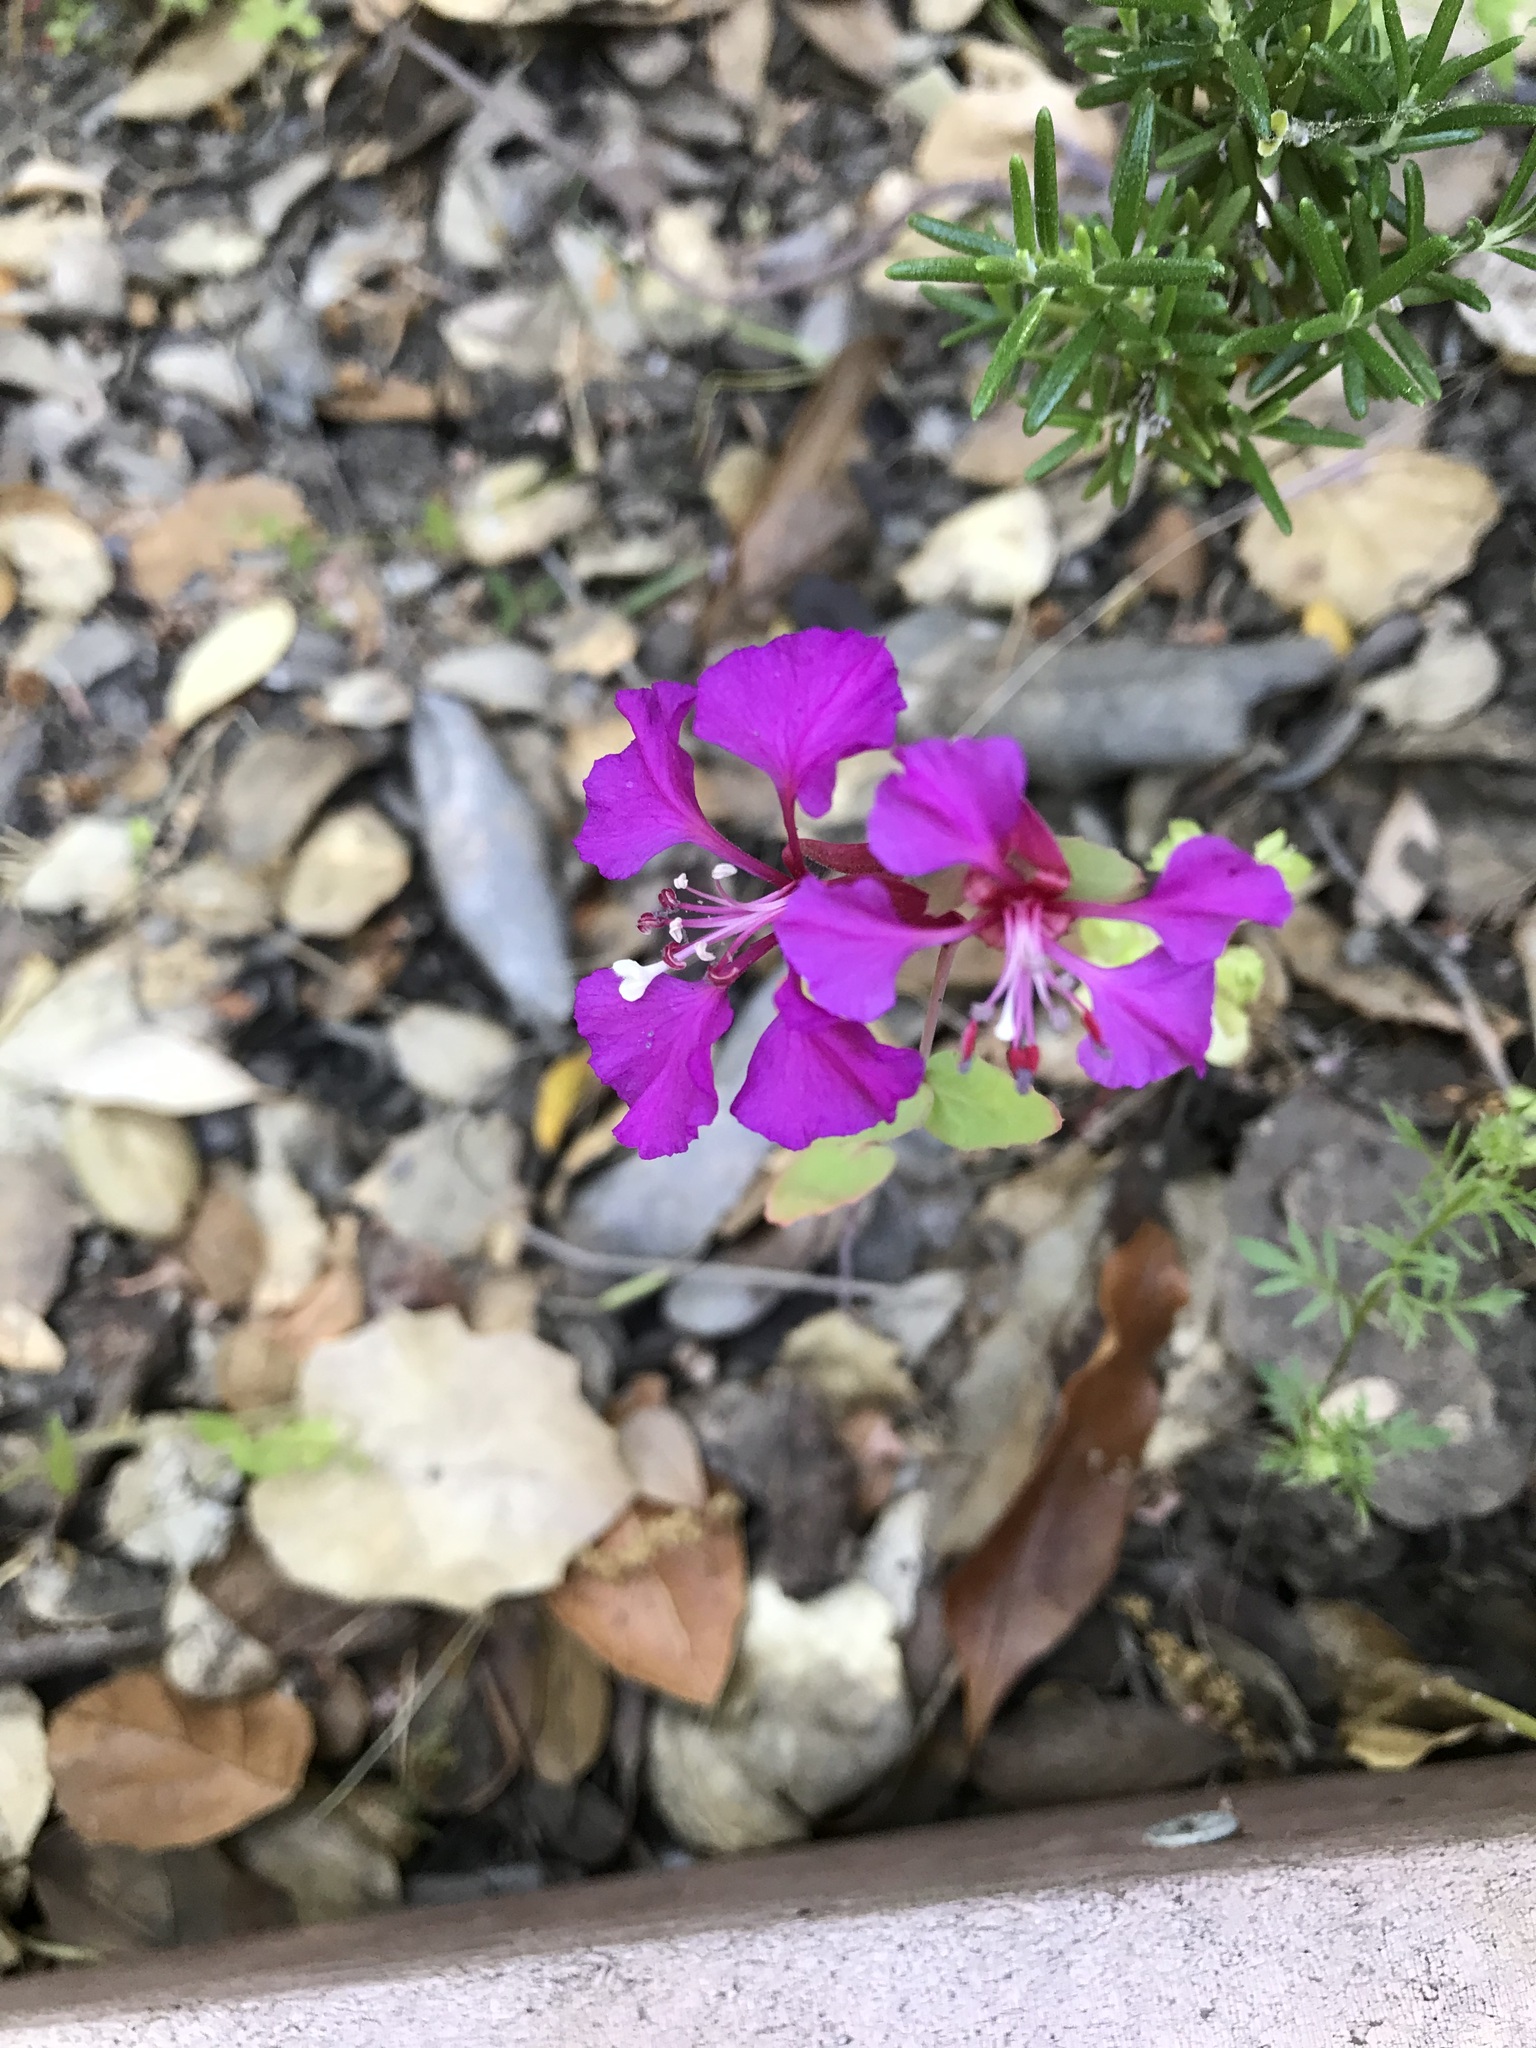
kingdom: Plantae
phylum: Tracheophyta
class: Magnoliopsida
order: Myrtales
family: Onagraceae
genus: Clarkia
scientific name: Clarkia unguiculata
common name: Clarkia
